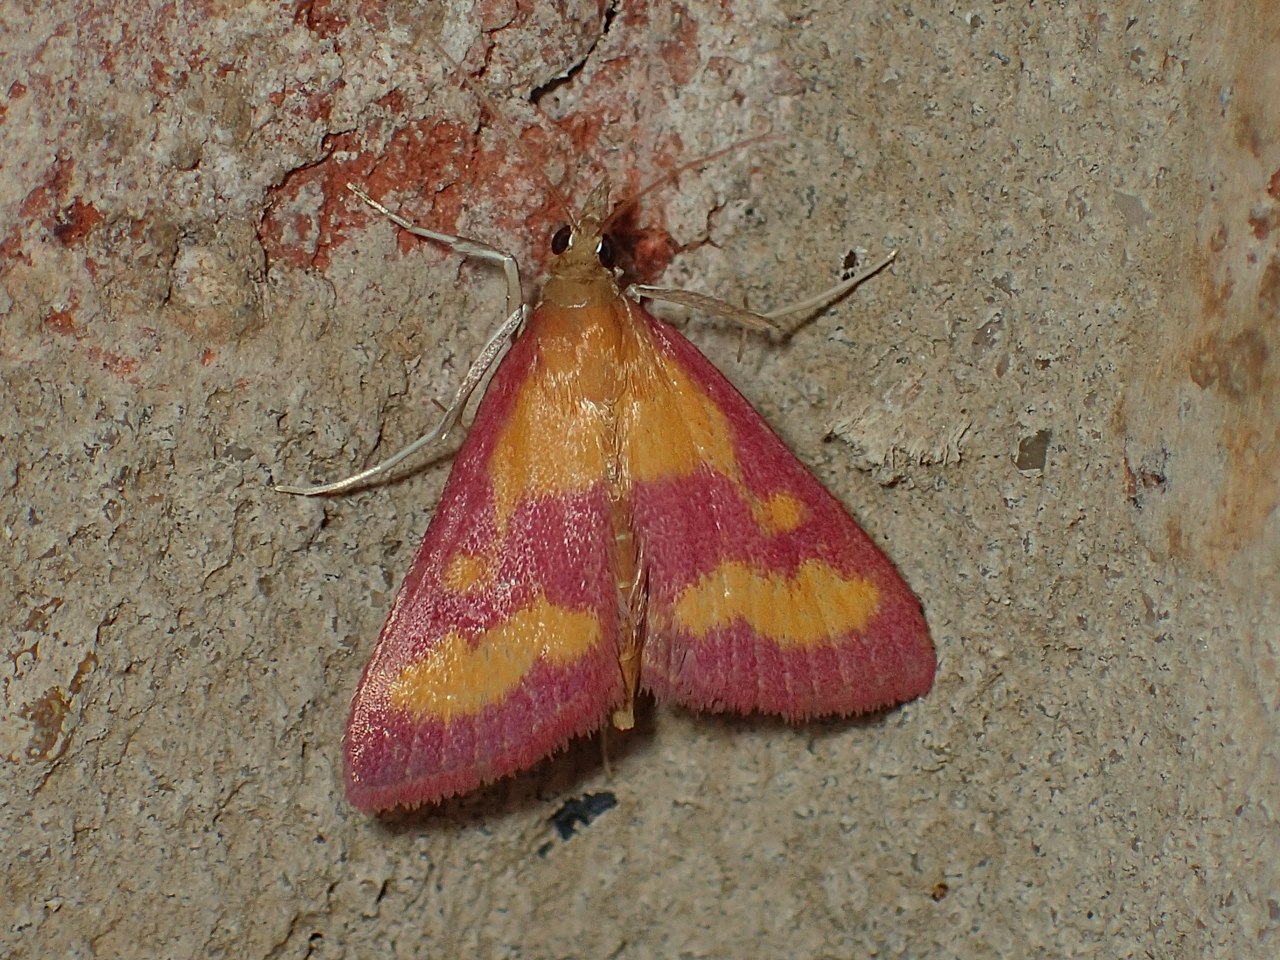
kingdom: Animalia
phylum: Arthropoda
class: Insecta
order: Lepidoptera
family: Crambidae
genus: Pyrausta
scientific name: Pyrausta laticlavia
